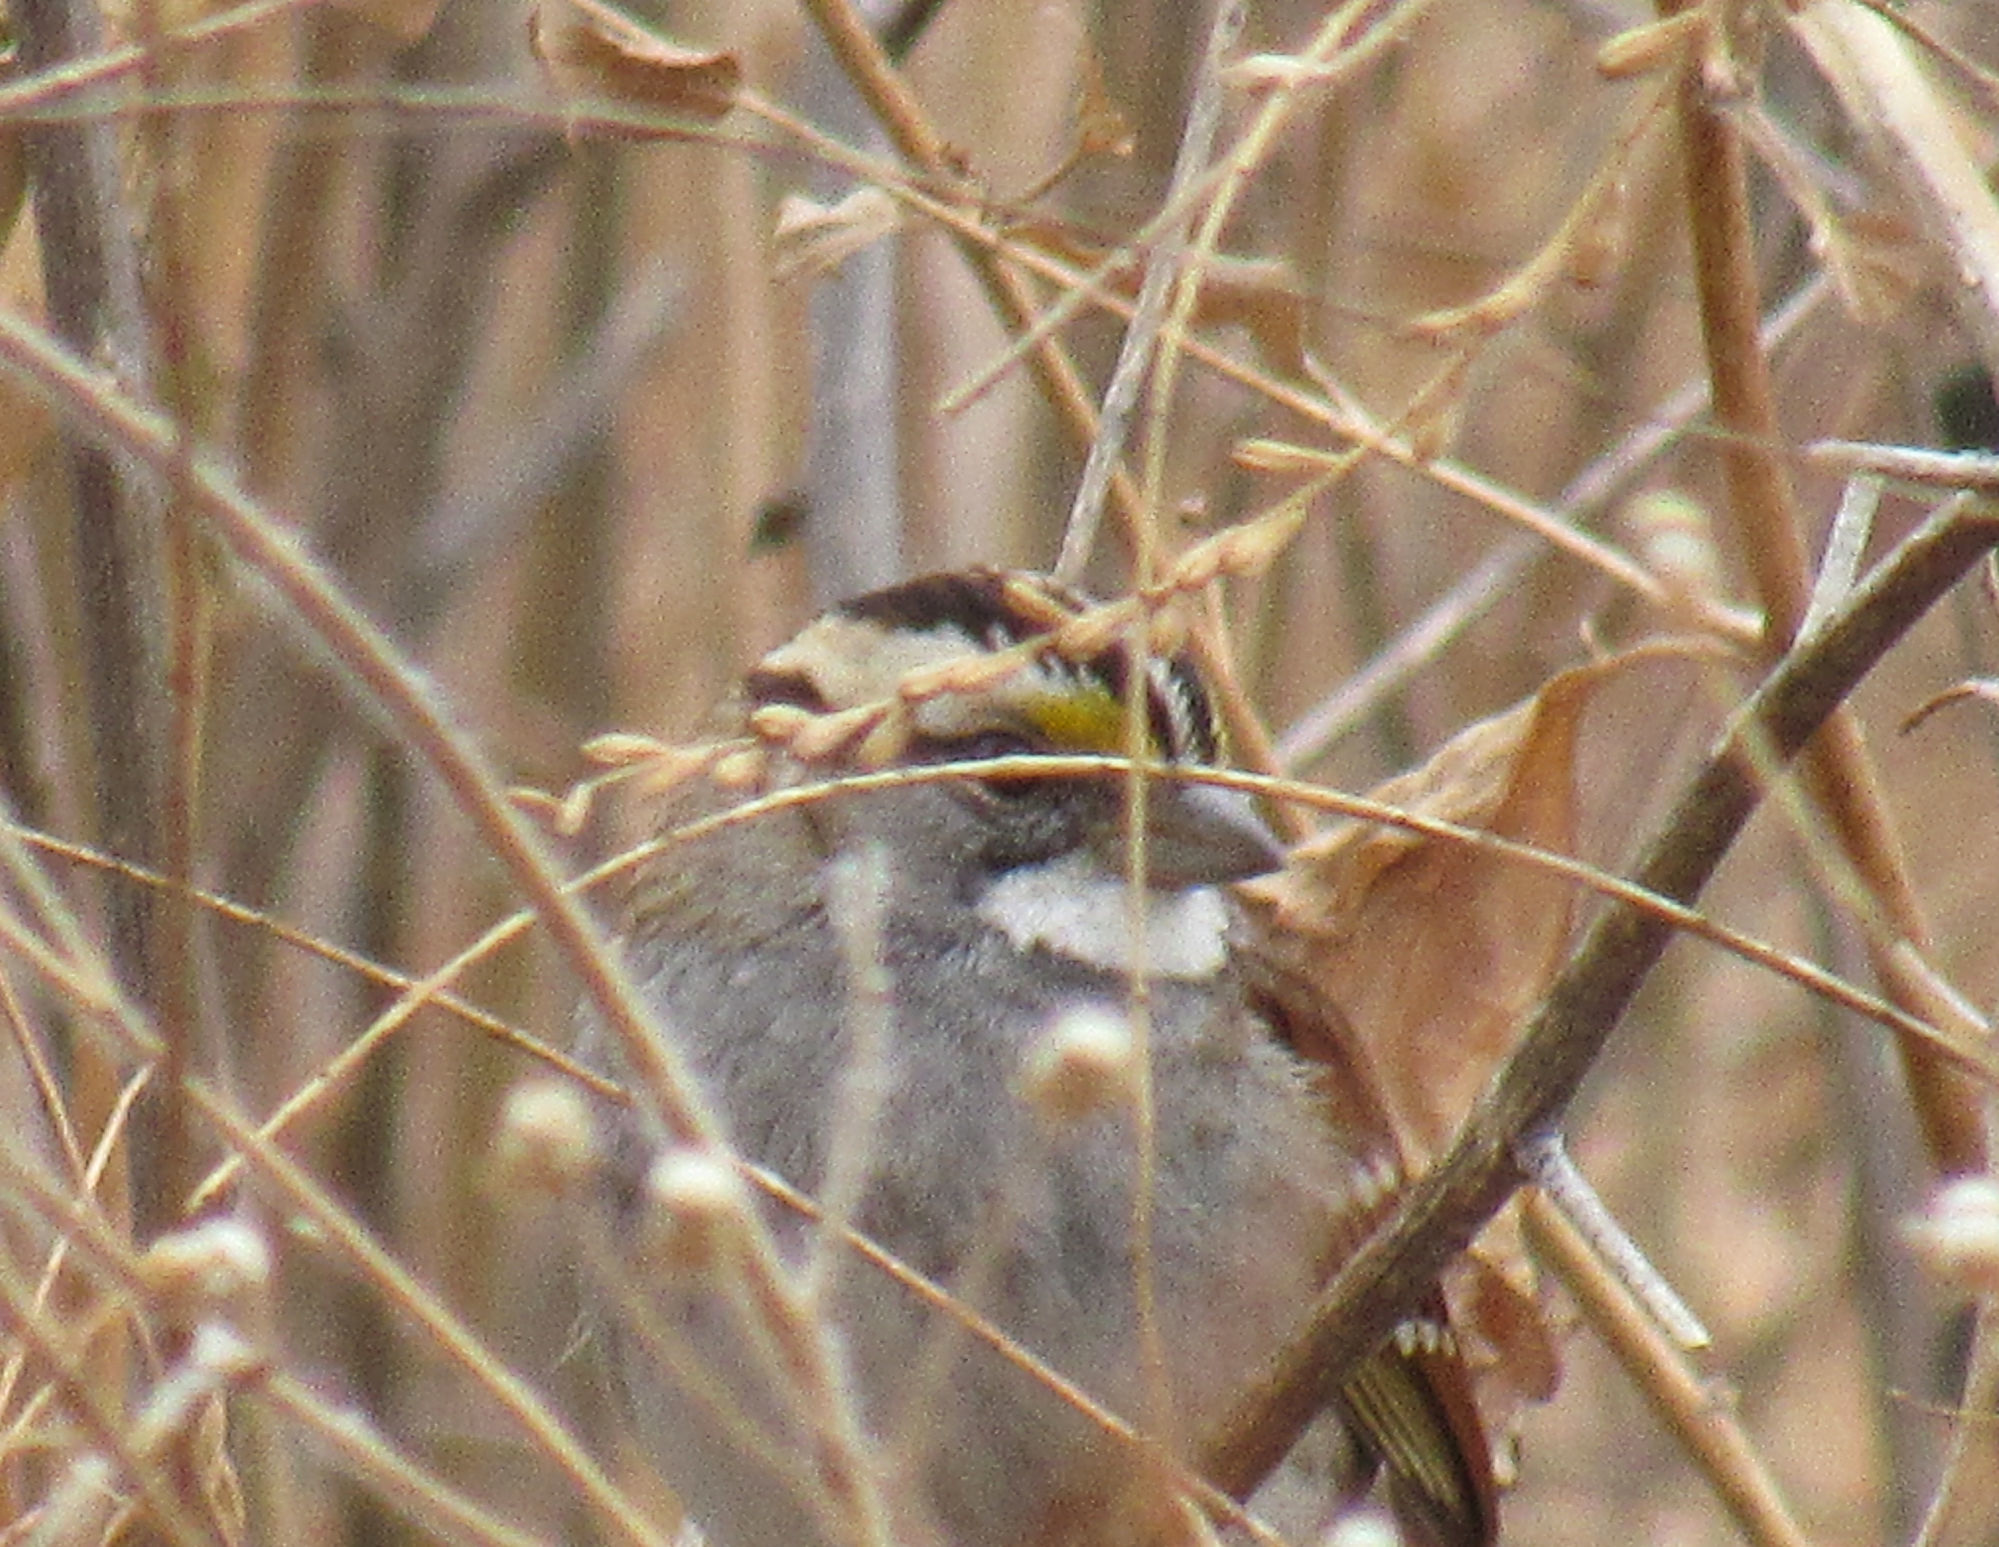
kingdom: Animalia
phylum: Chordata
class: Aves
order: Passeriformes
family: Passerellidae
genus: Zonotrichia
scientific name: Zonotrichia albicollis
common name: White-throated sparrow
